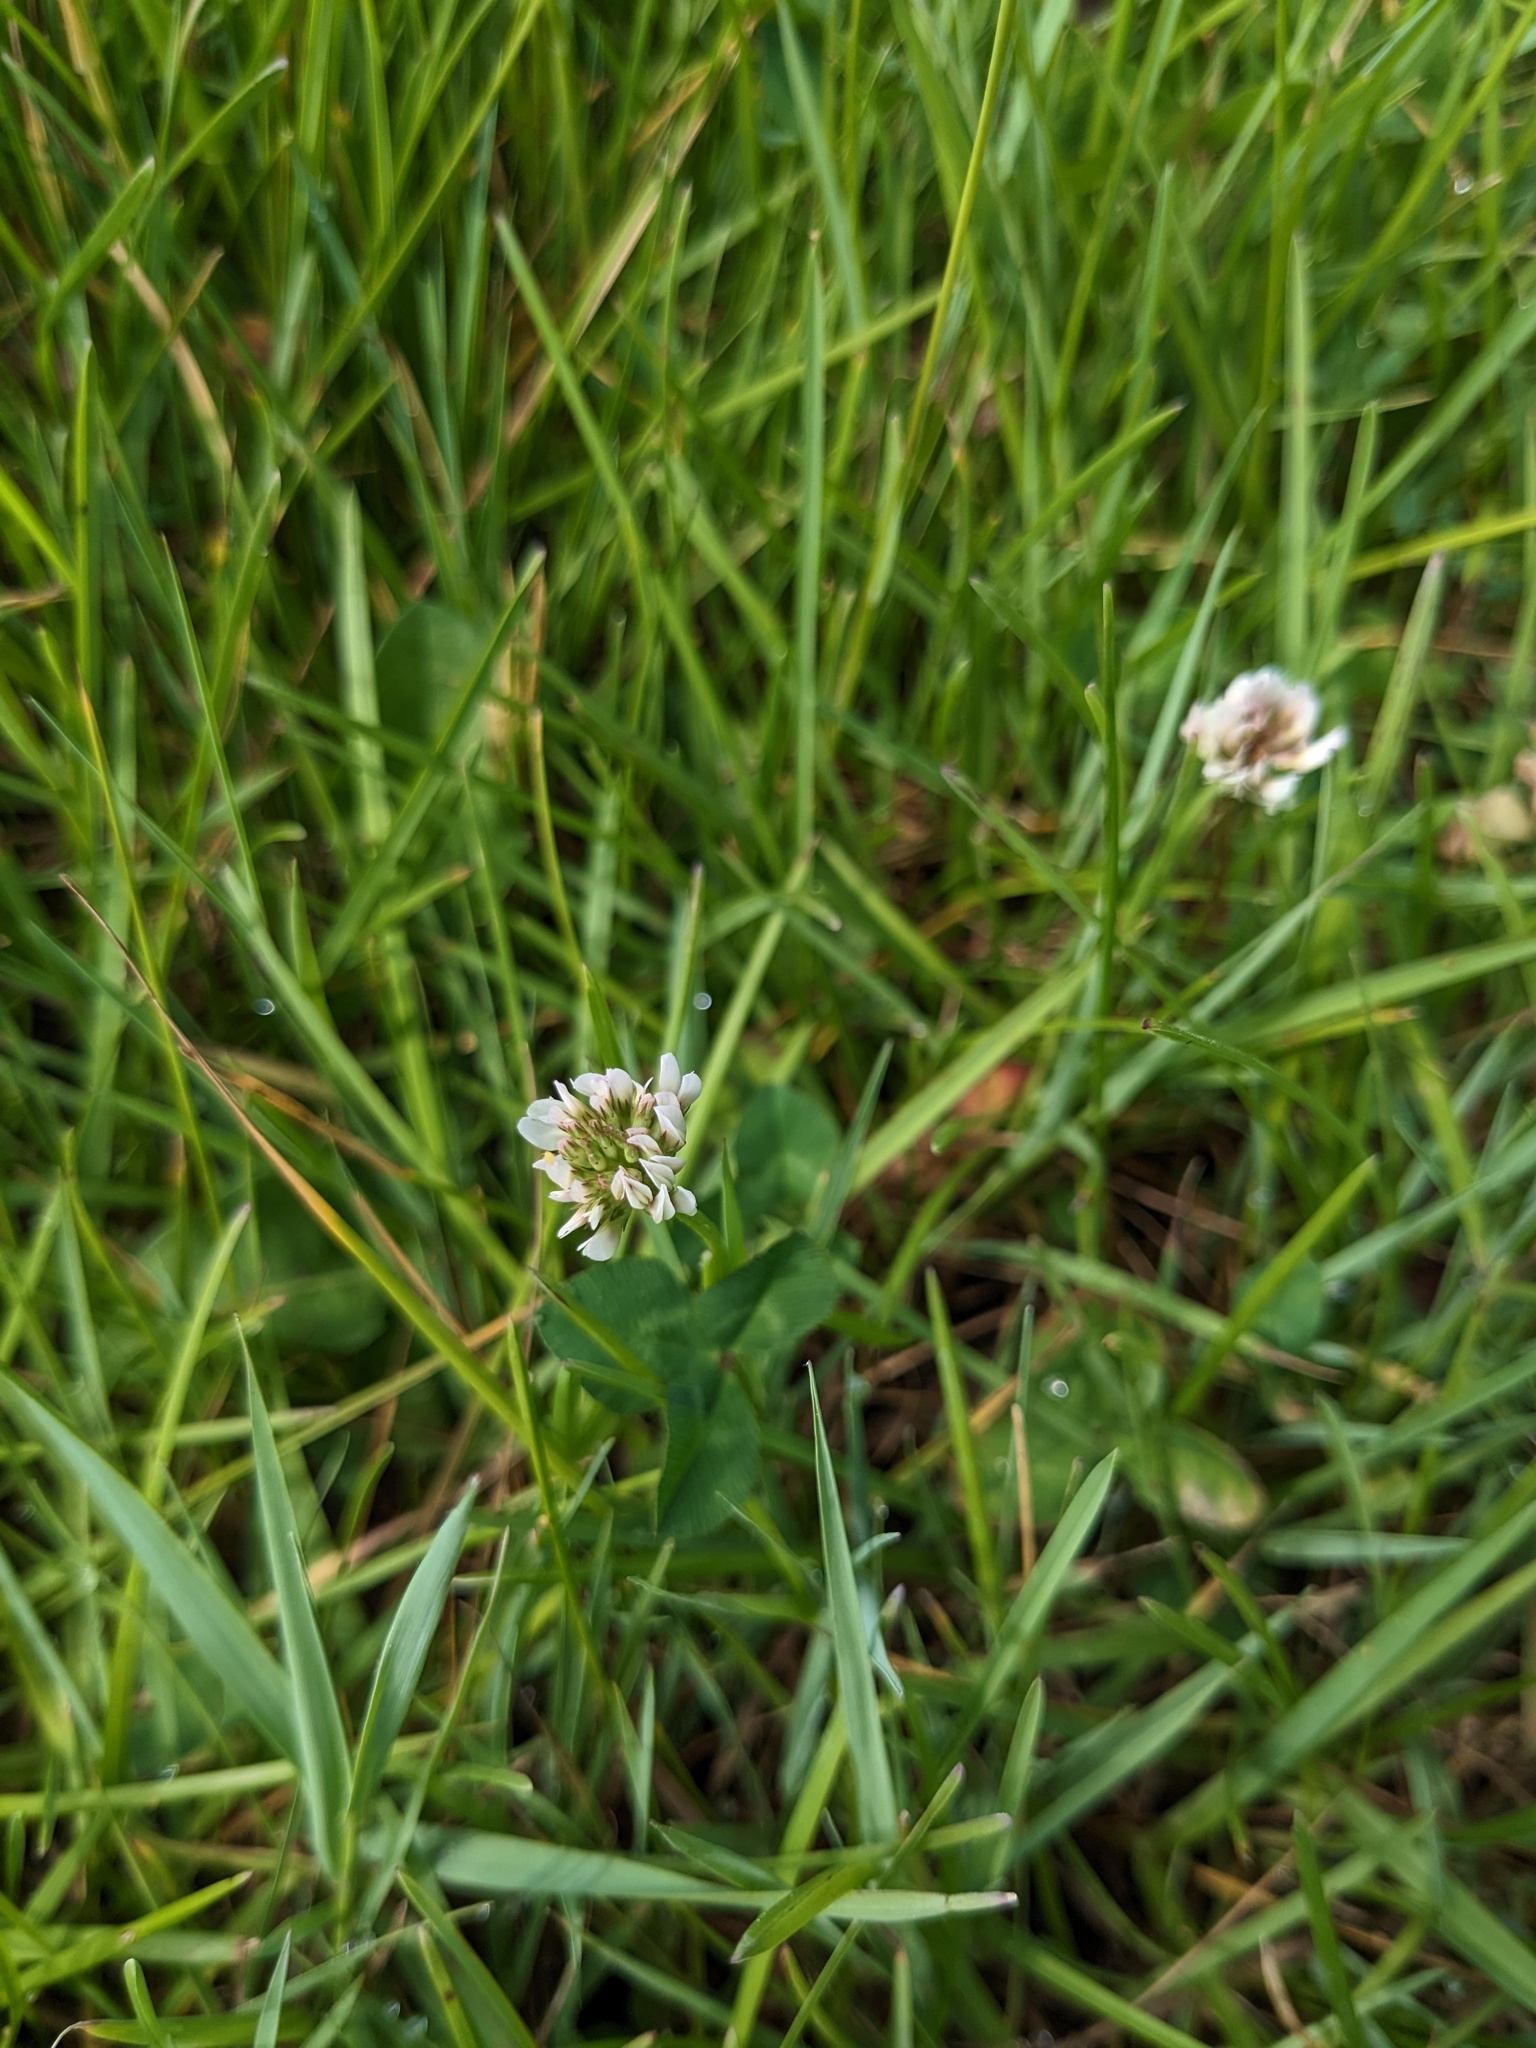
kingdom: Plantae
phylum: Tracheophyta
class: Magnoliopsida
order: Fabales
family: Fabaceae
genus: Trifolium
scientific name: Trifolium repens
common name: White clover
